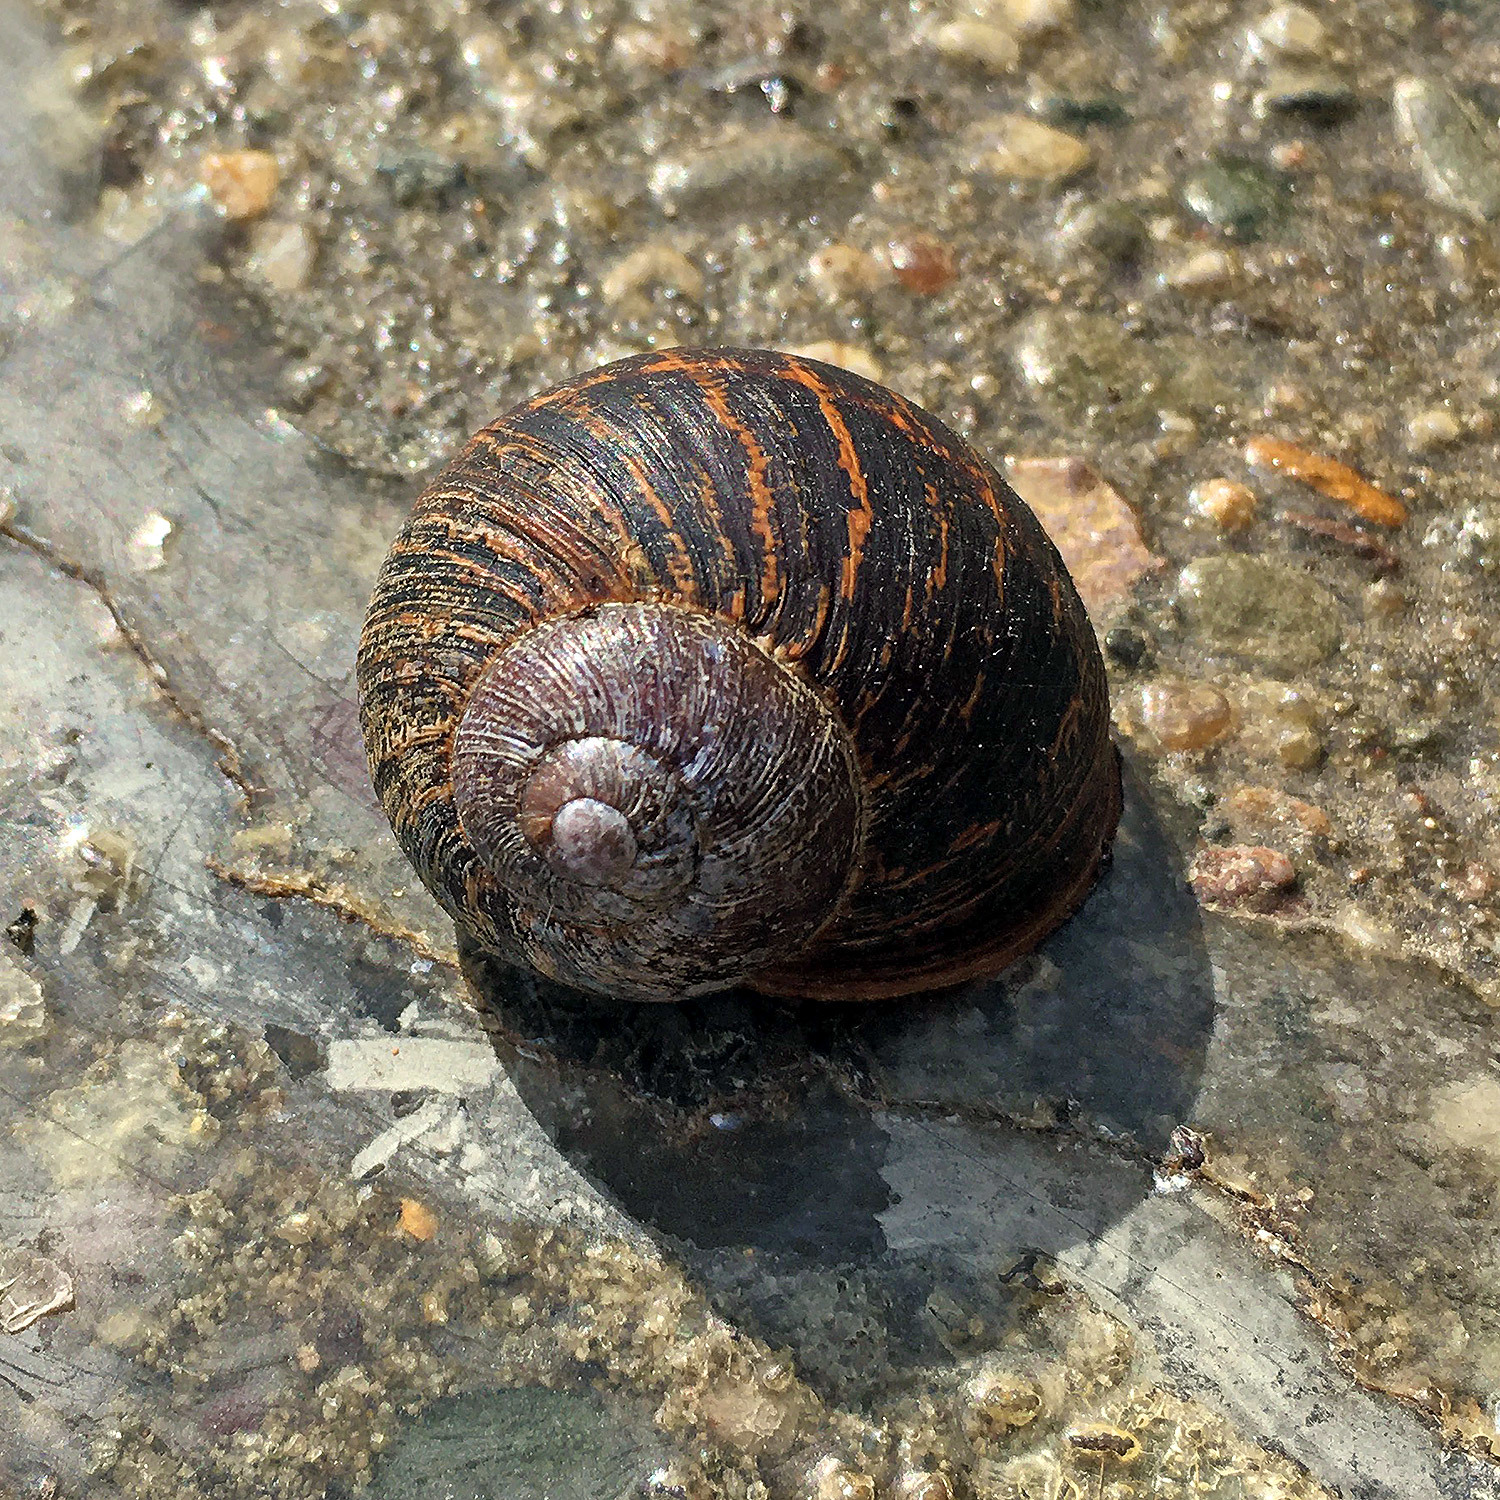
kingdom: Animalia
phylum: Mollusca
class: Gastropoda
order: Stylommatophora
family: Helicidae
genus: Cornu
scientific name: Cornu aspersum
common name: Brown garden snail
